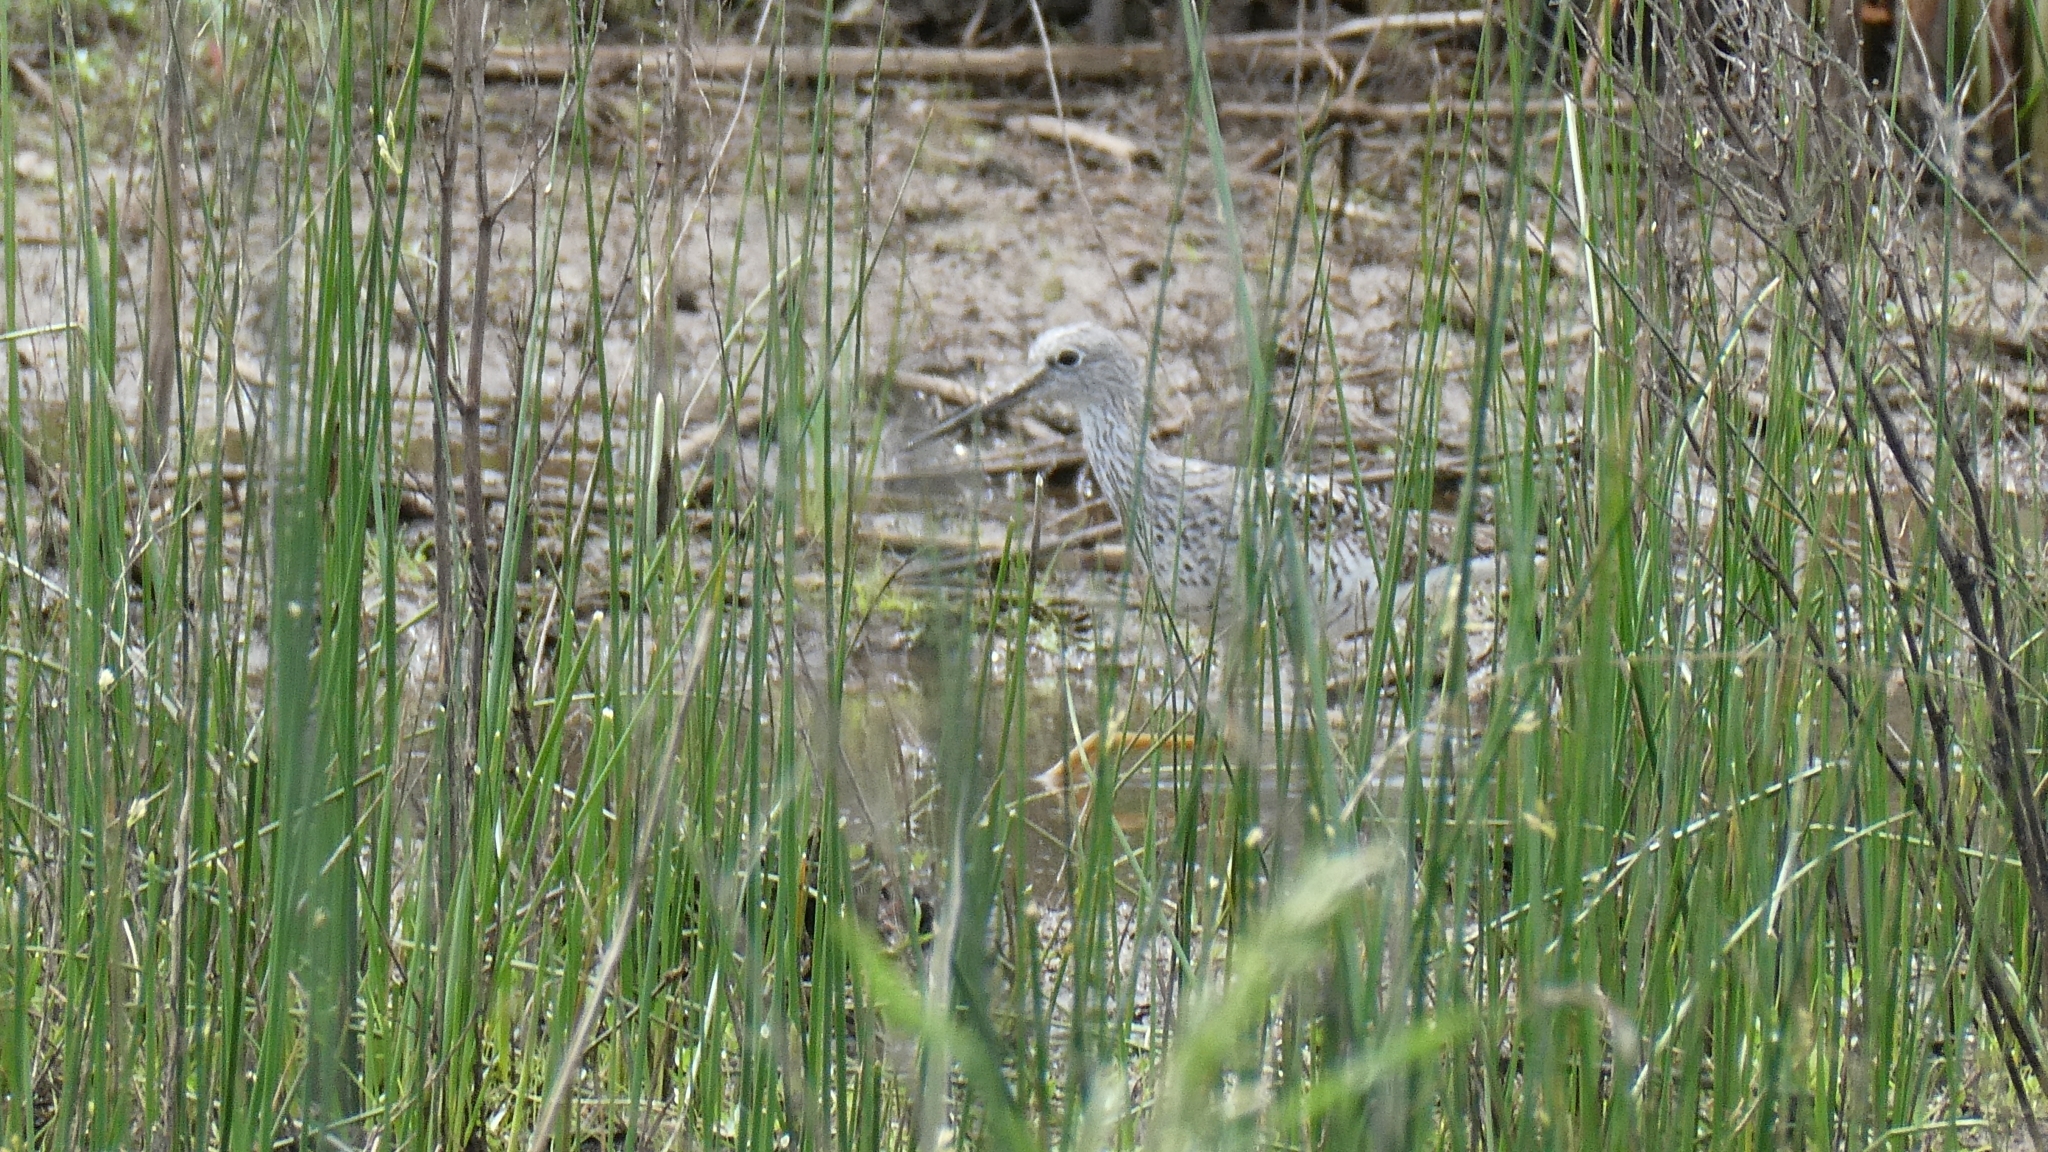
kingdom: Animalia
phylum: Chordata
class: Aves
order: Charadriiformes
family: Scolopacidae
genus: Tringa
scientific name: Tringa melanoleuca
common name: Greater yellowlegs
